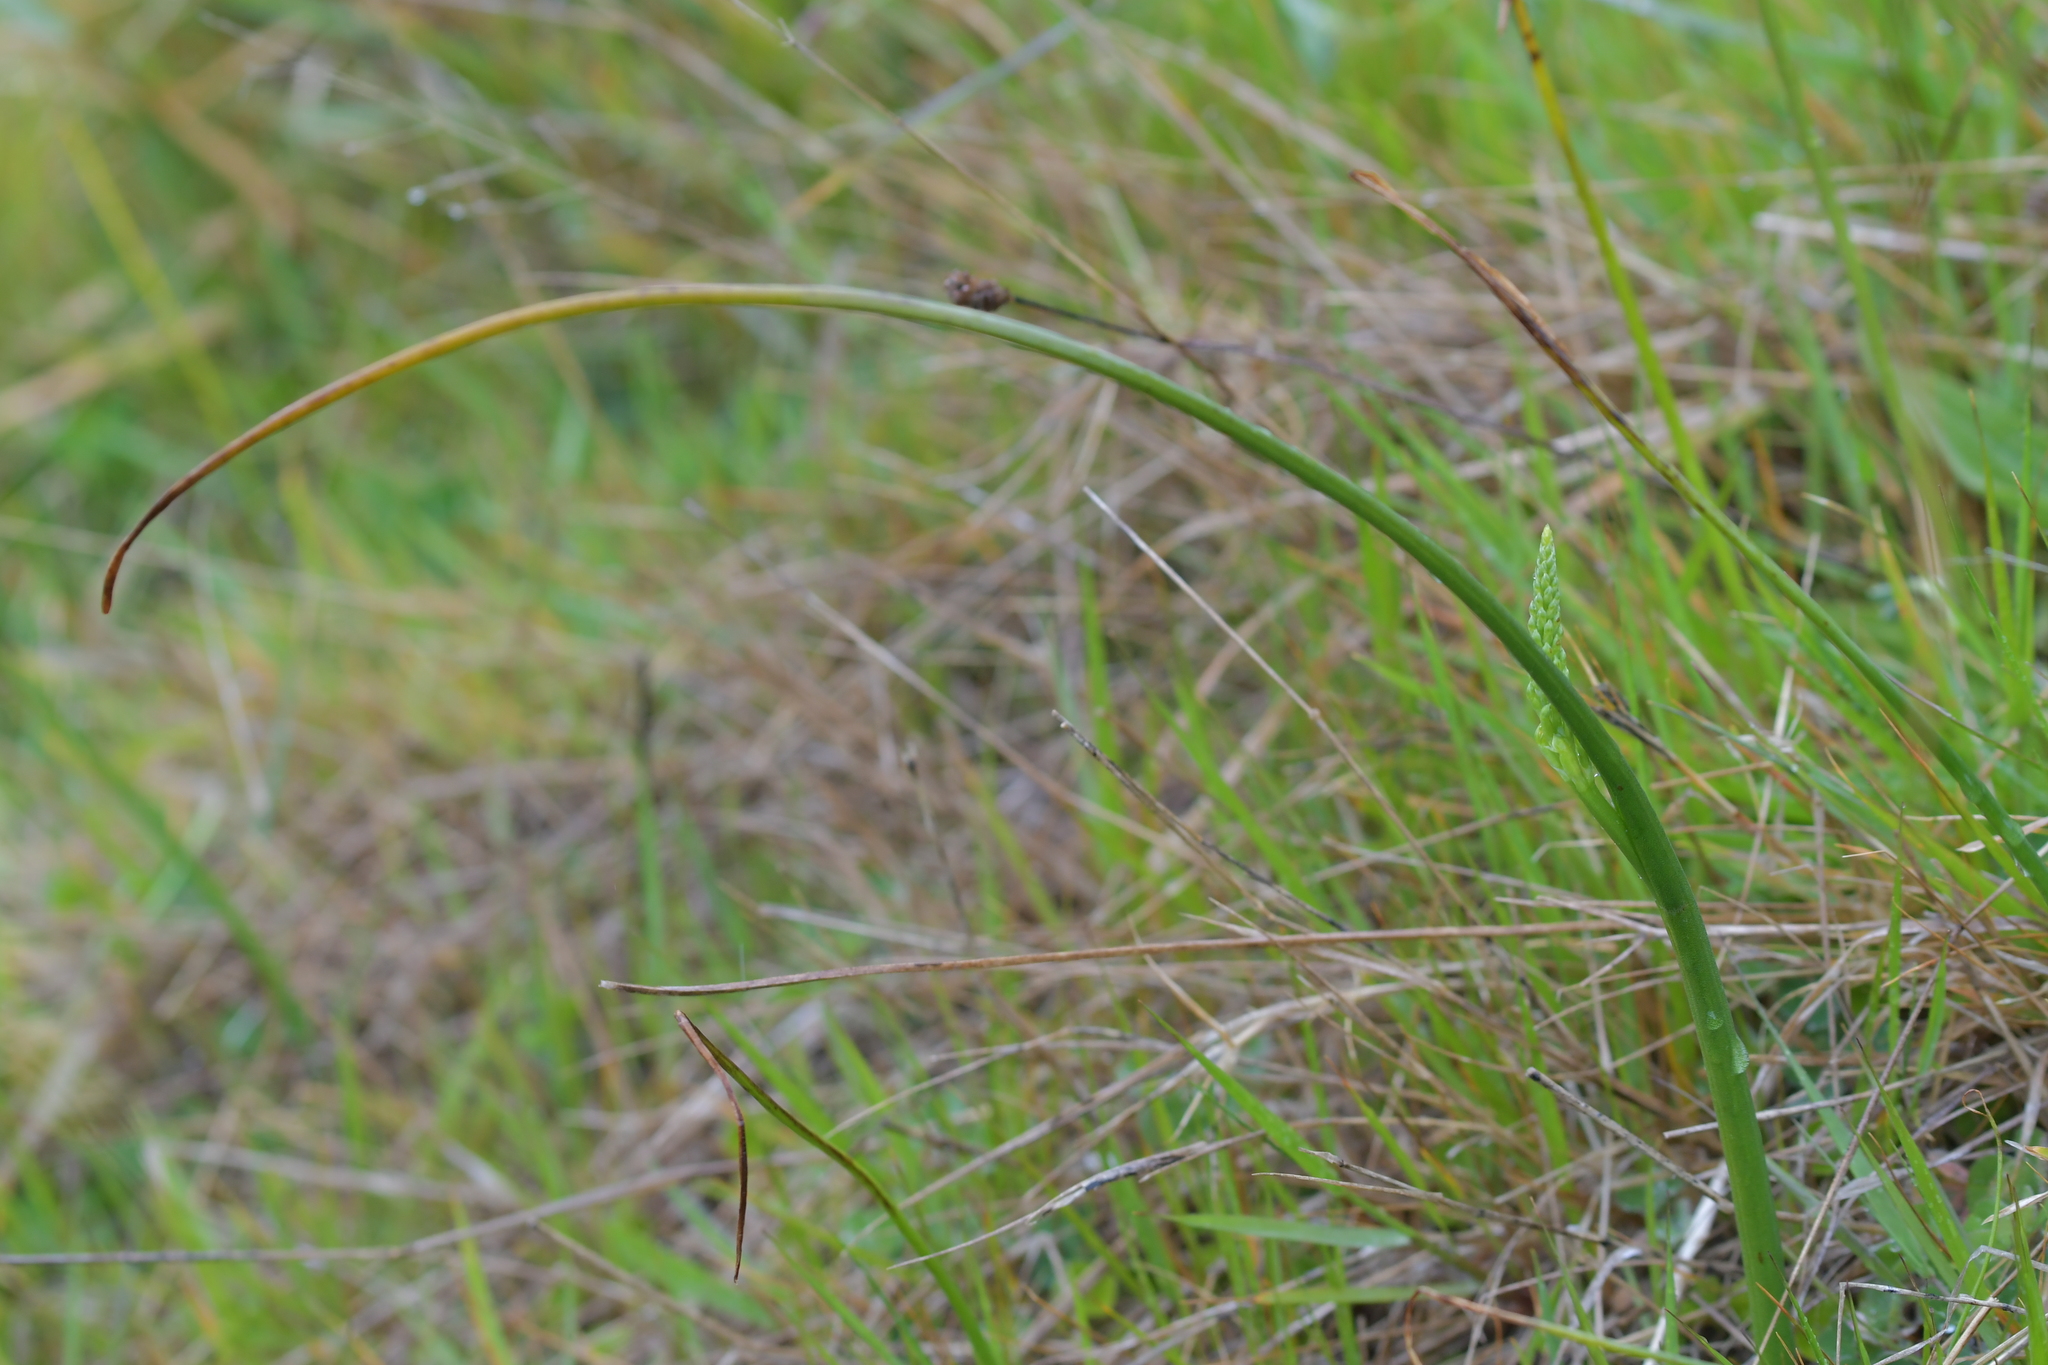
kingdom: Plantae
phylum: Tracheophyta
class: Liliopsida
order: Asparagales
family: Orchidaceae
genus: Microtis
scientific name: Microtis unifolia
